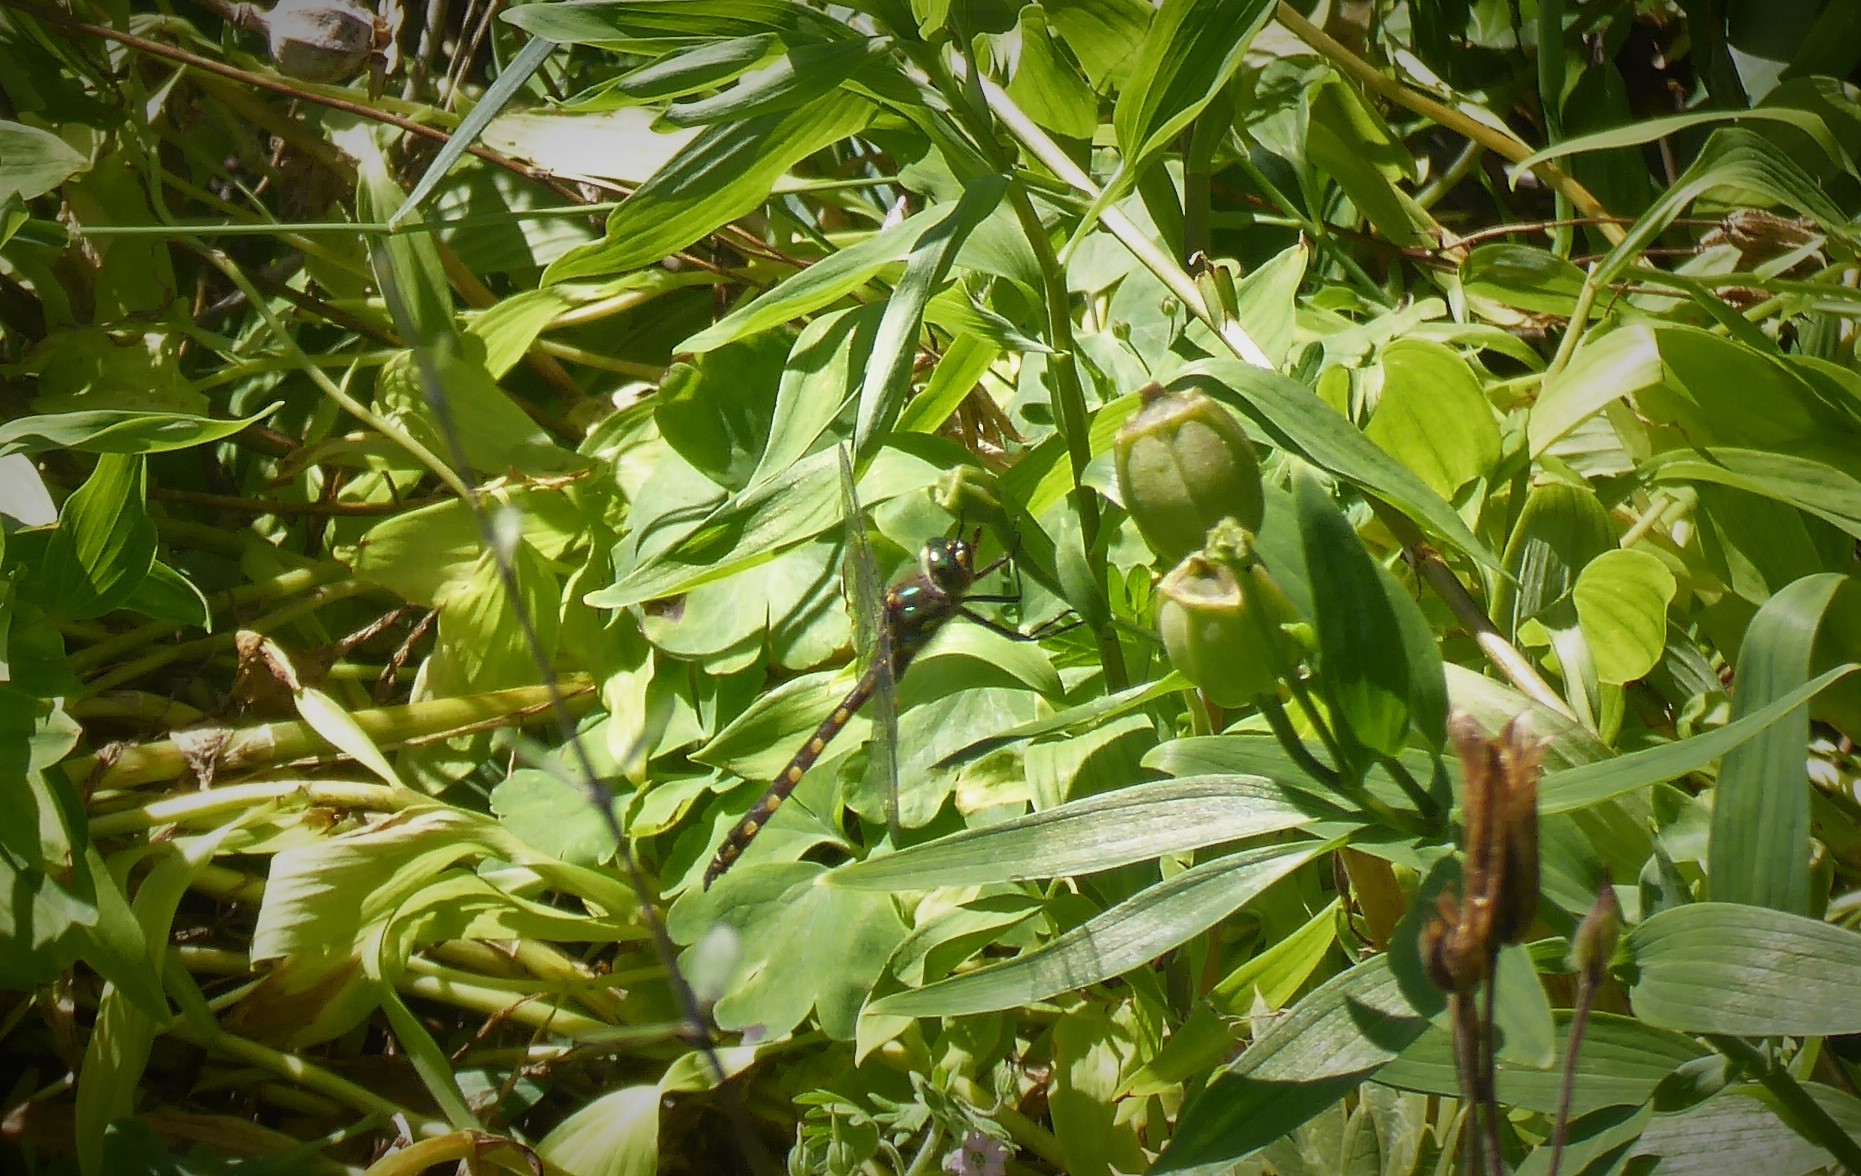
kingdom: Animalia
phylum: Arthropoda
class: Insecta
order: Odonata
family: Corduliidae
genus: Procordulia
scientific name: Procordulia grayi
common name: Yellow spotted dragonfly
